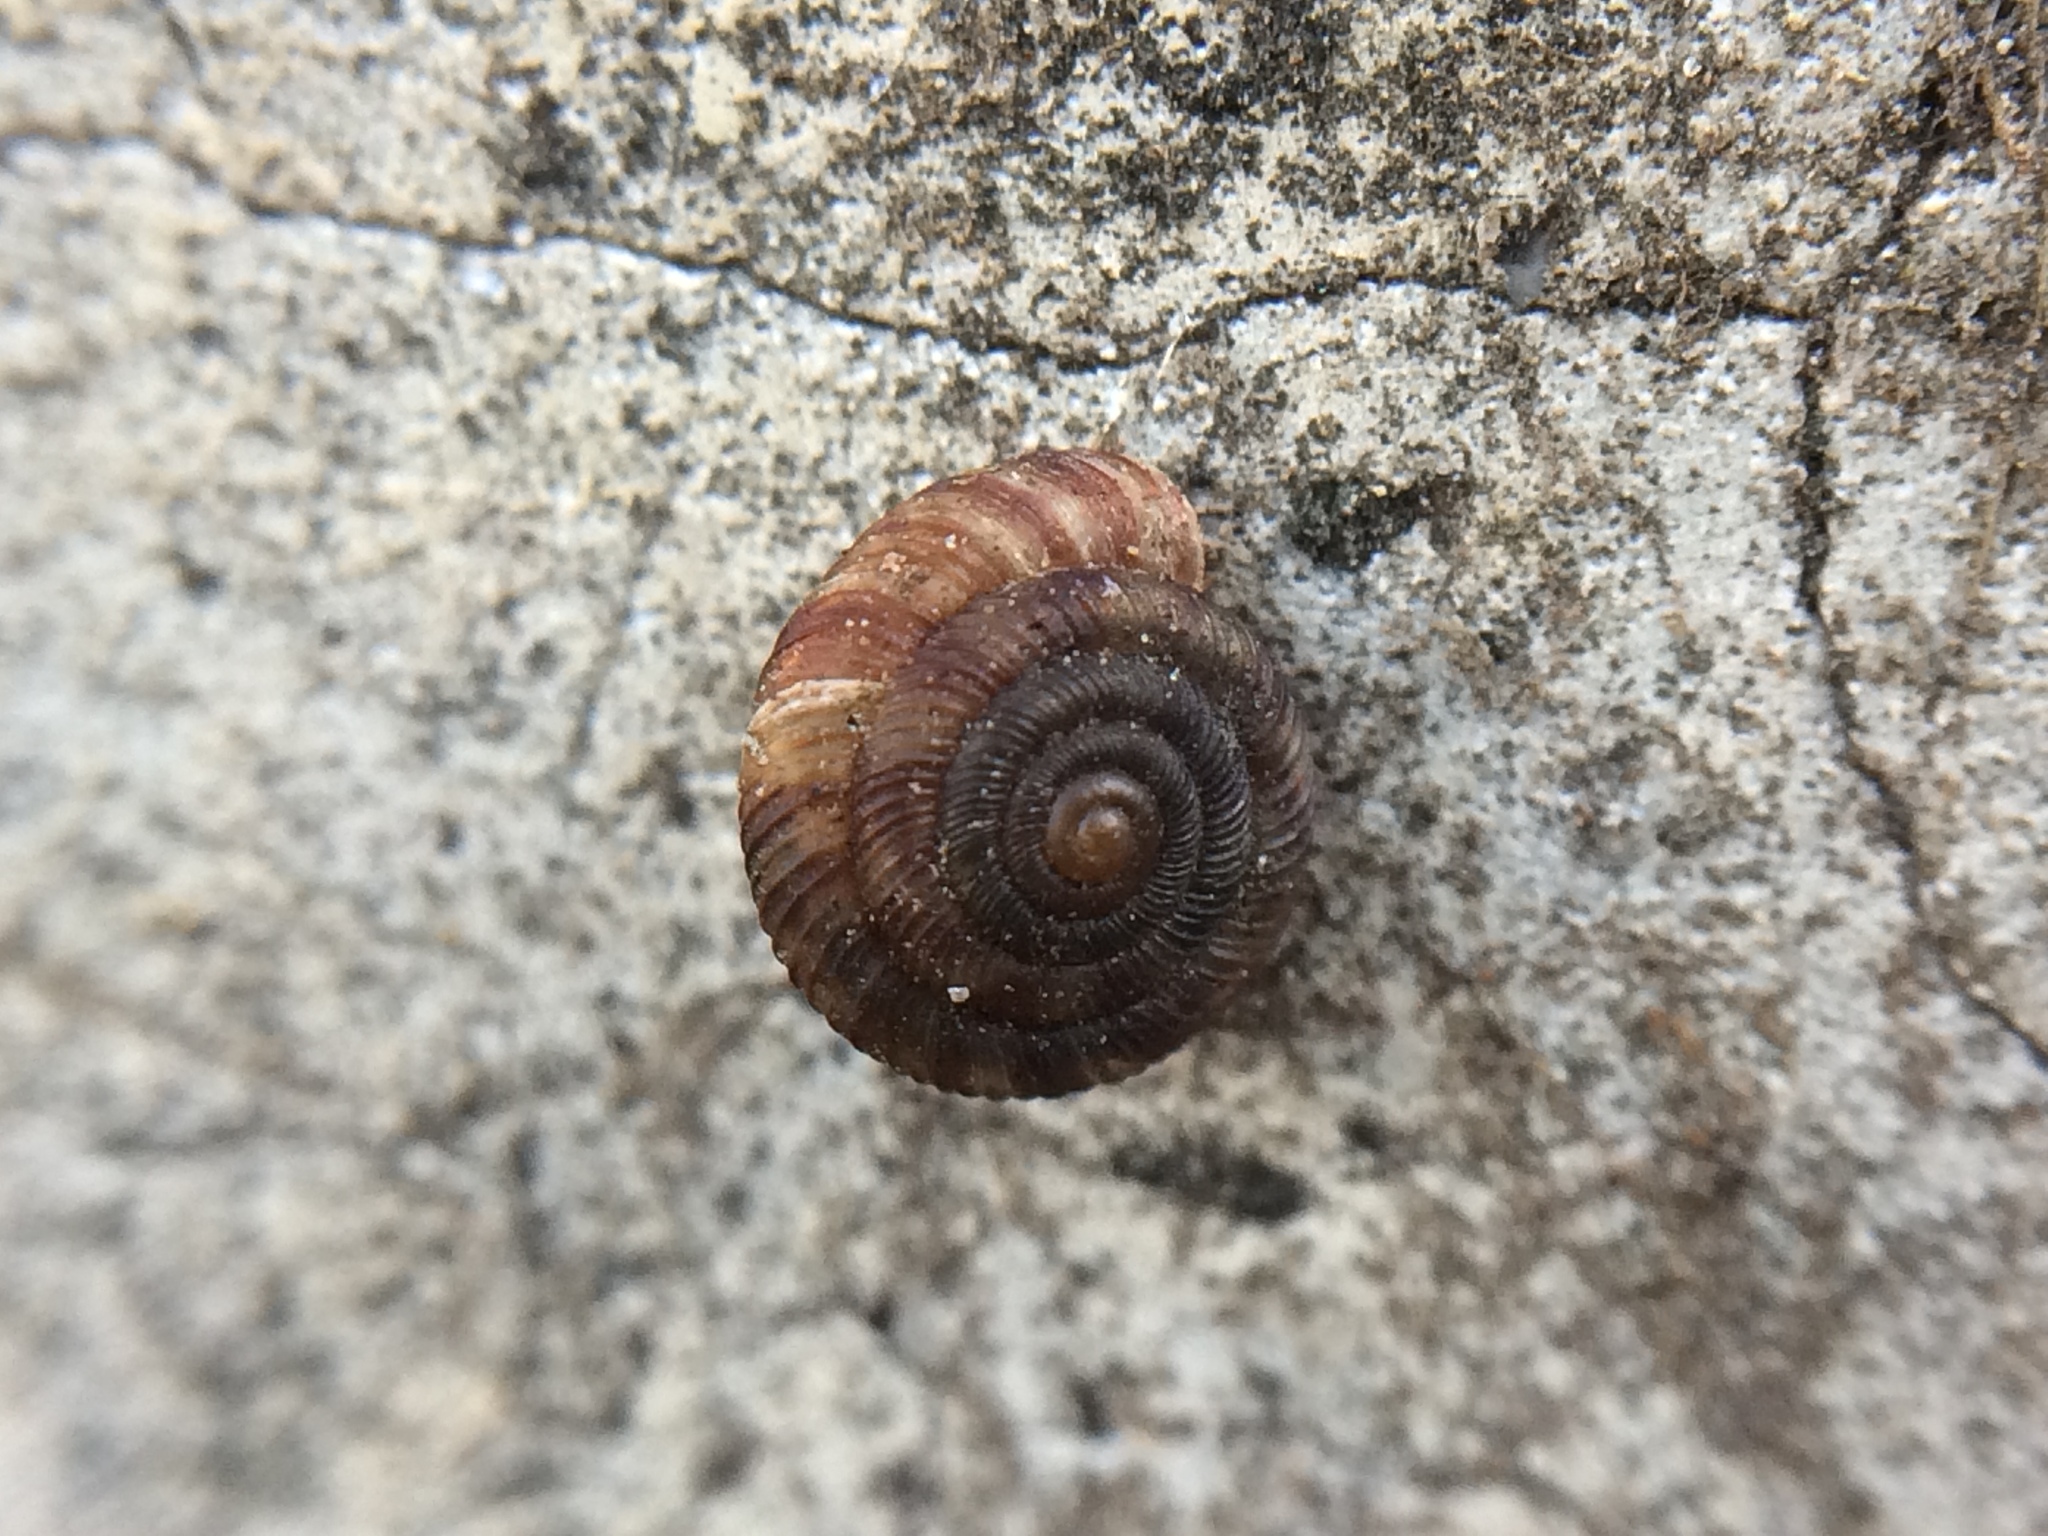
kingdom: Animalia
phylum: Mollusca
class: Gastropoda
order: Stylommatophora
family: Discidae
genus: Discus
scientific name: Discus rotundatus
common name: Rounded snail
